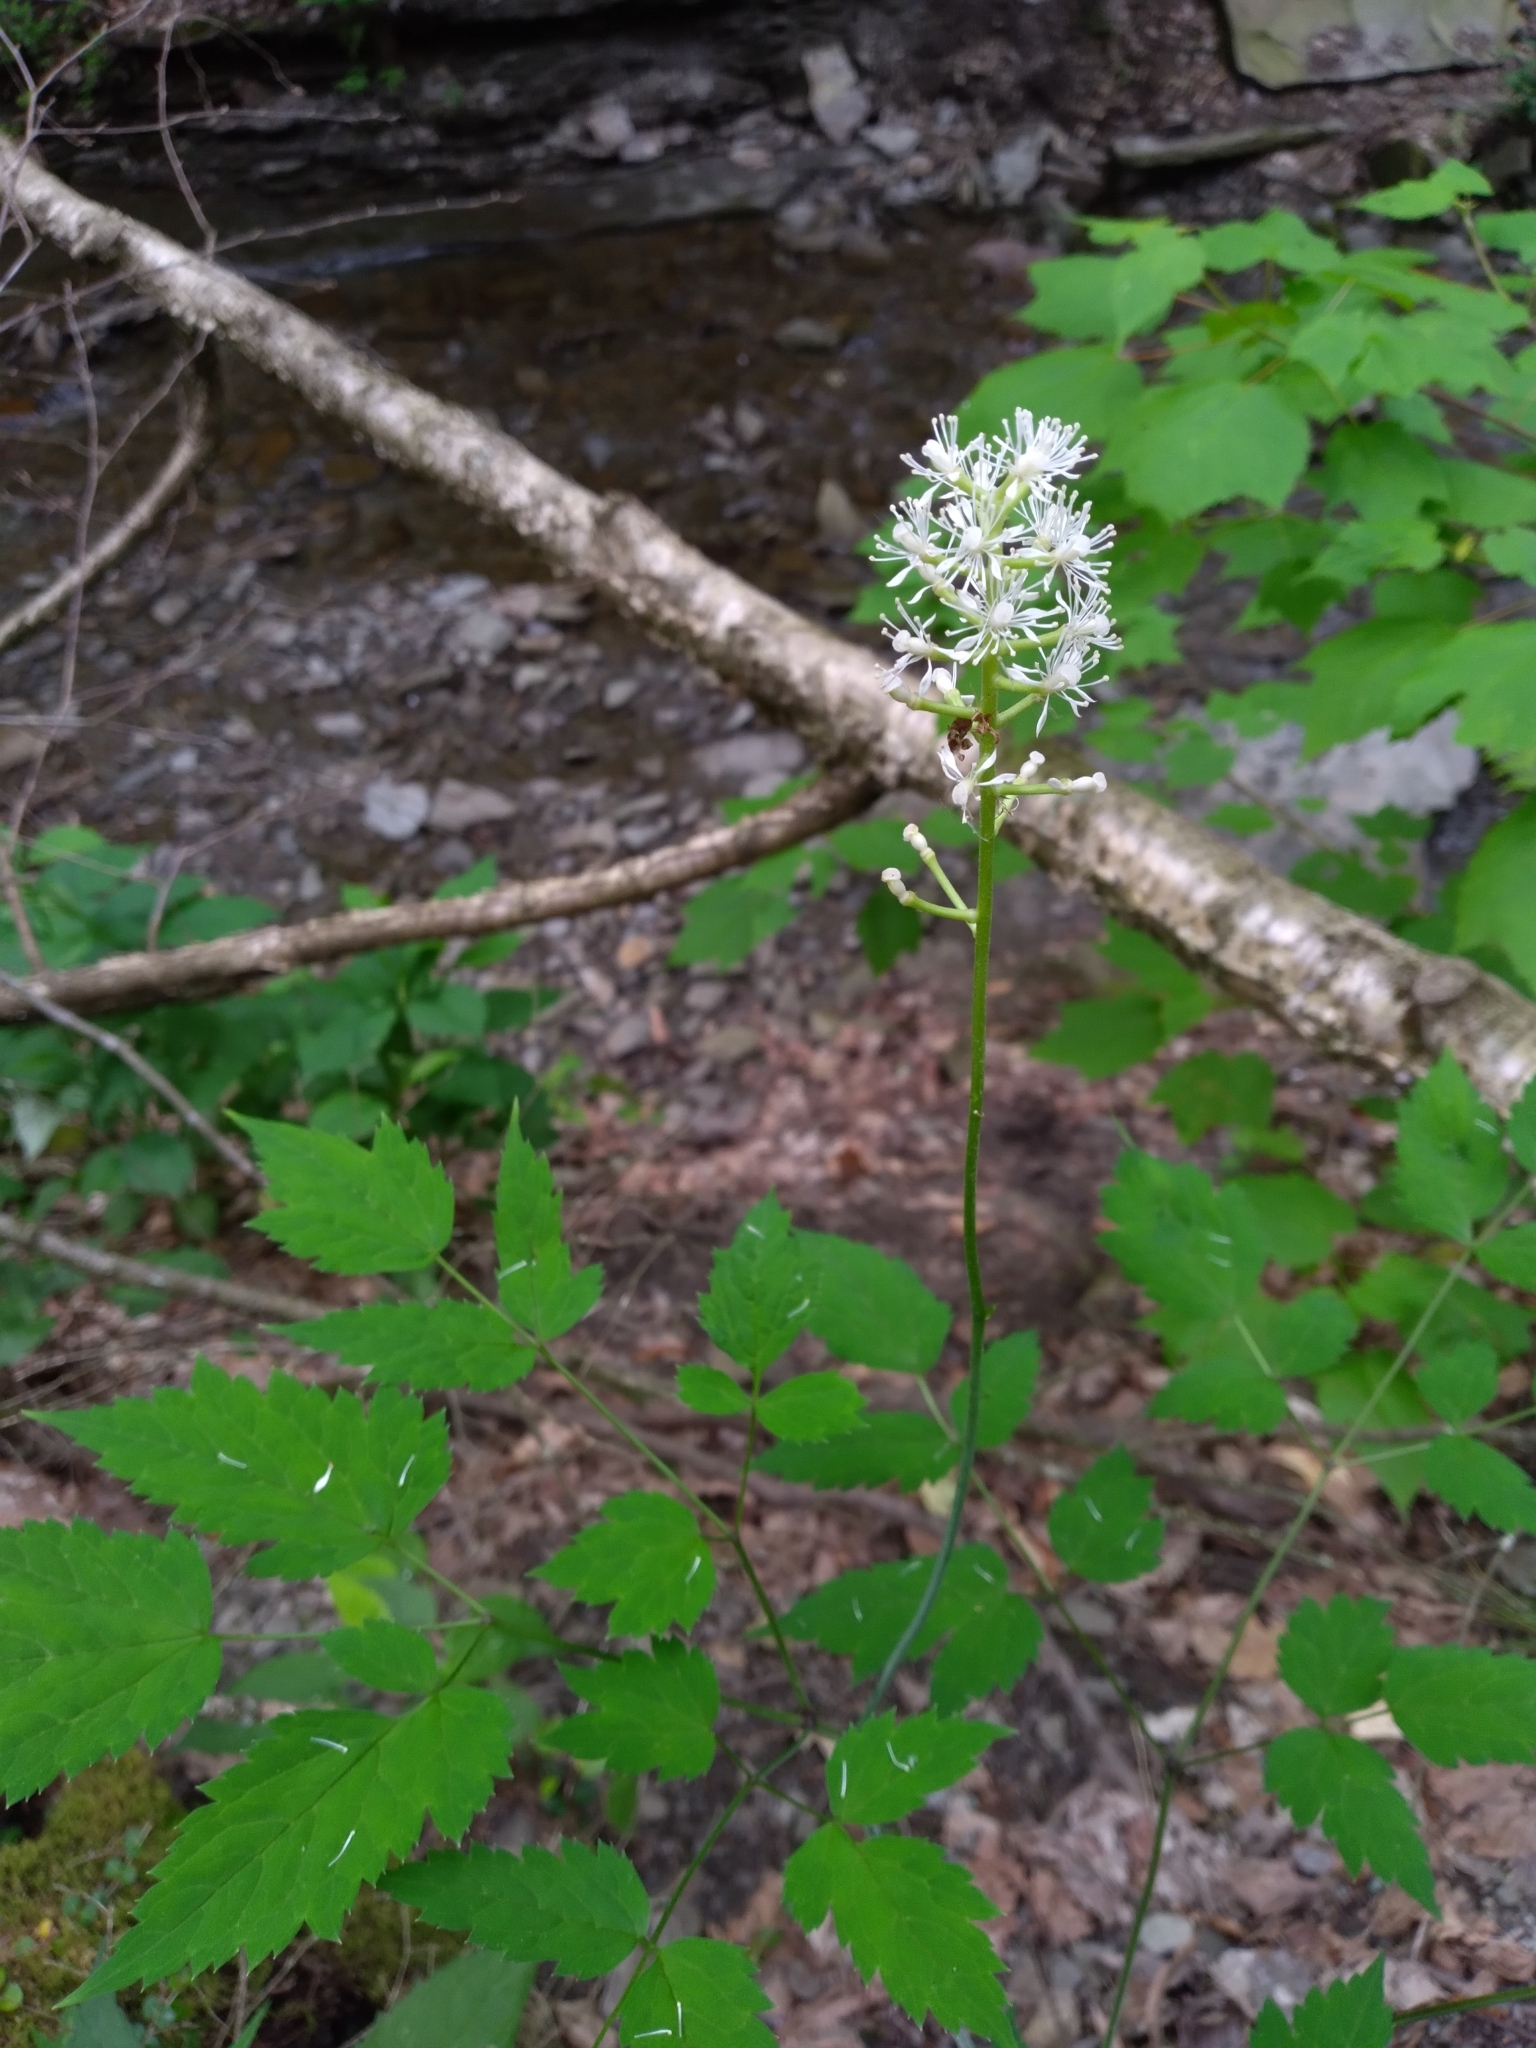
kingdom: Plantae
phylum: Tracheophyta
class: Magnoliopsida
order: Ranunculales
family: Ranunculaceae
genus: Actaea
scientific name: Actaea pachypoda
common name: Doll's-eyes
